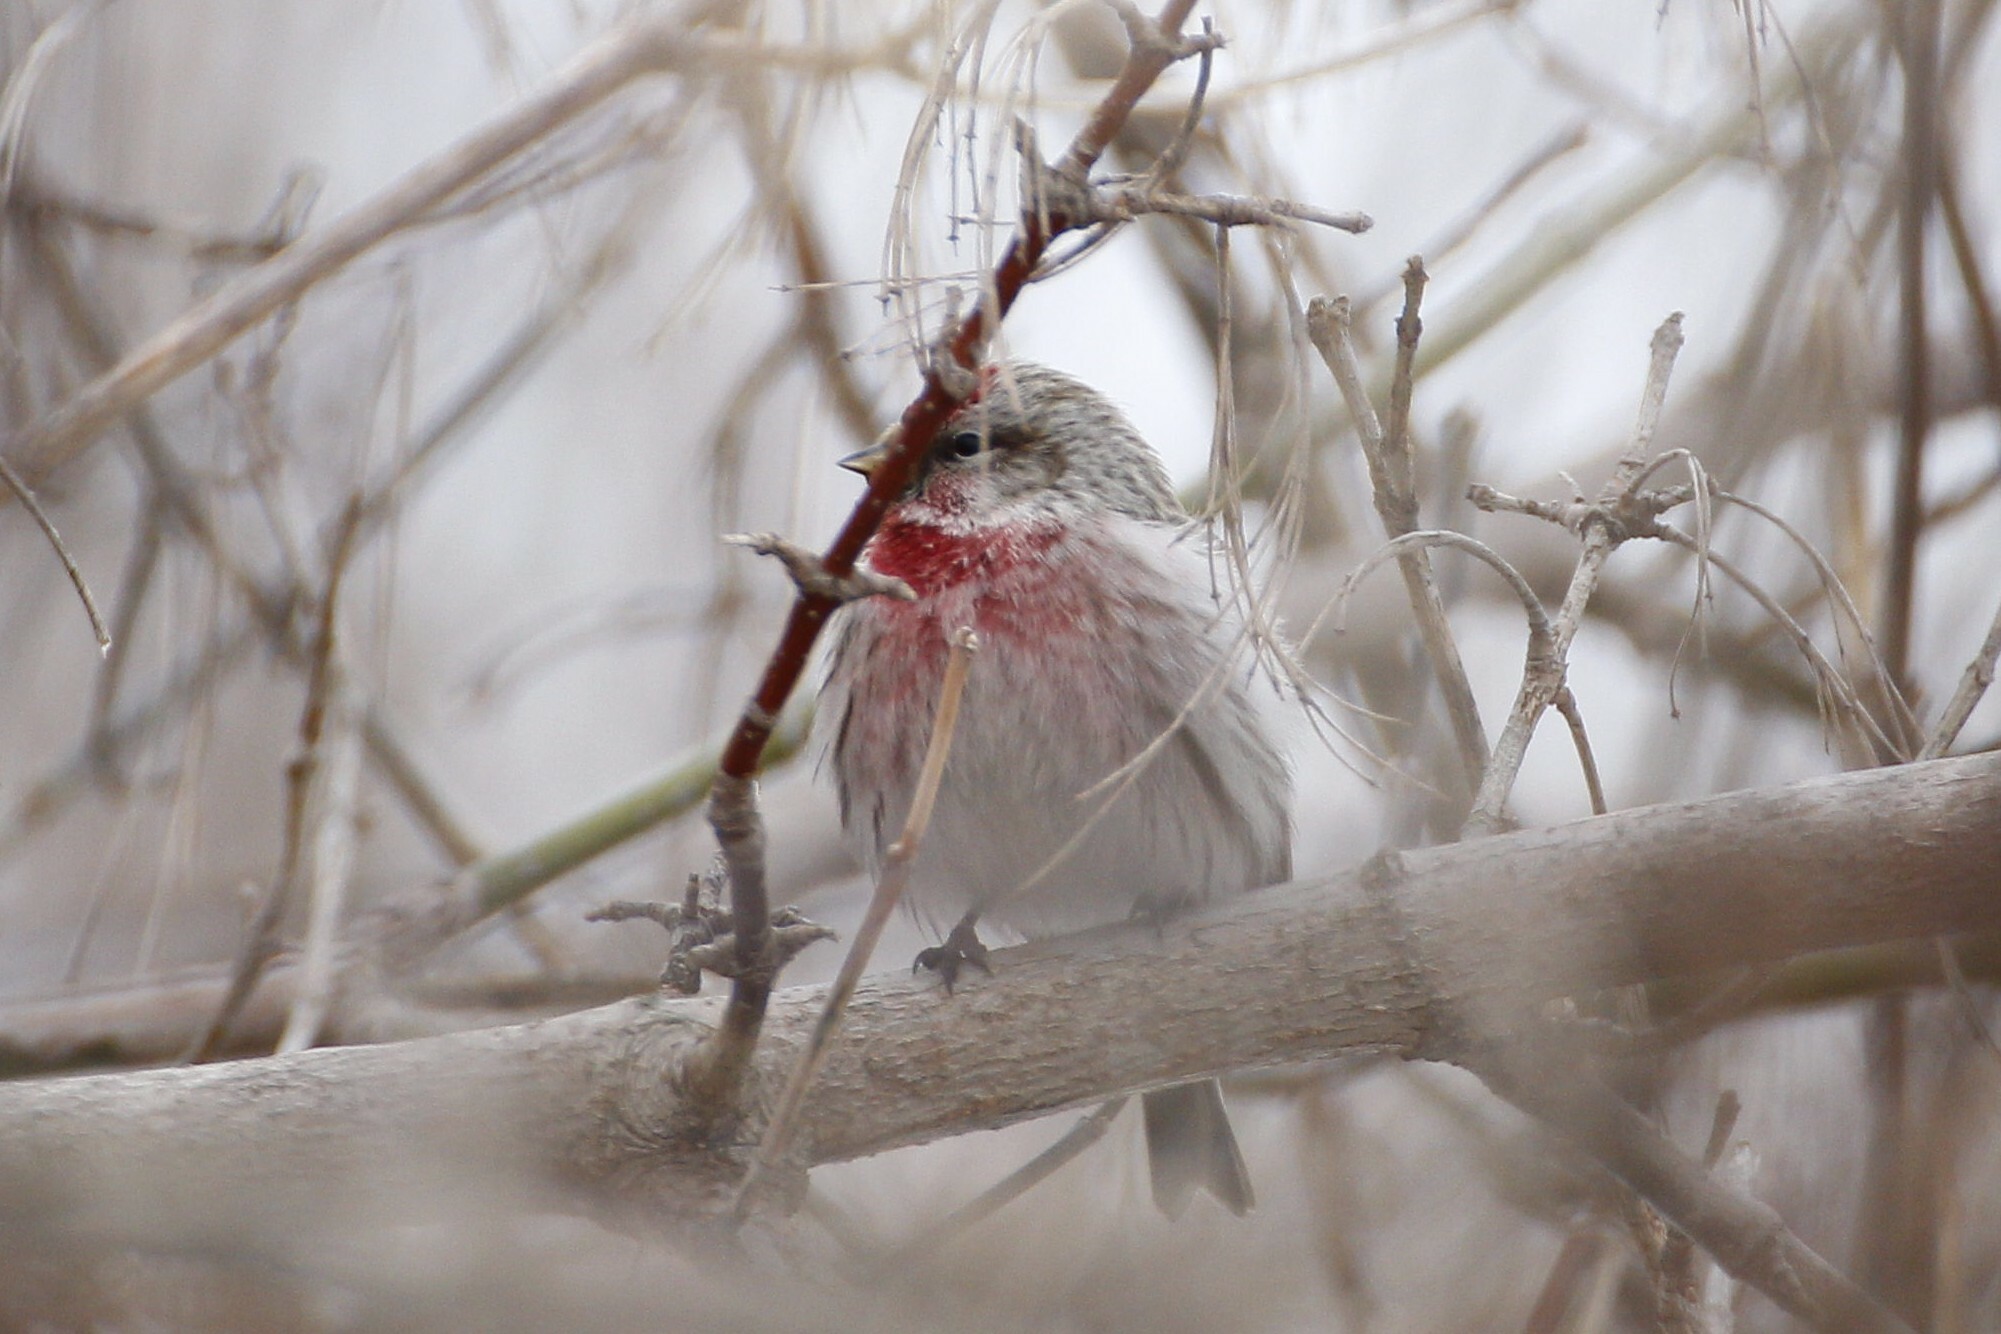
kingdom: Animalia
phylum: Chordata
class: Aves
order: Passeriformes
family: Fringillidae
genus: Acanthis
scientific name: Acanthis flammea
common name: Common redpoll
